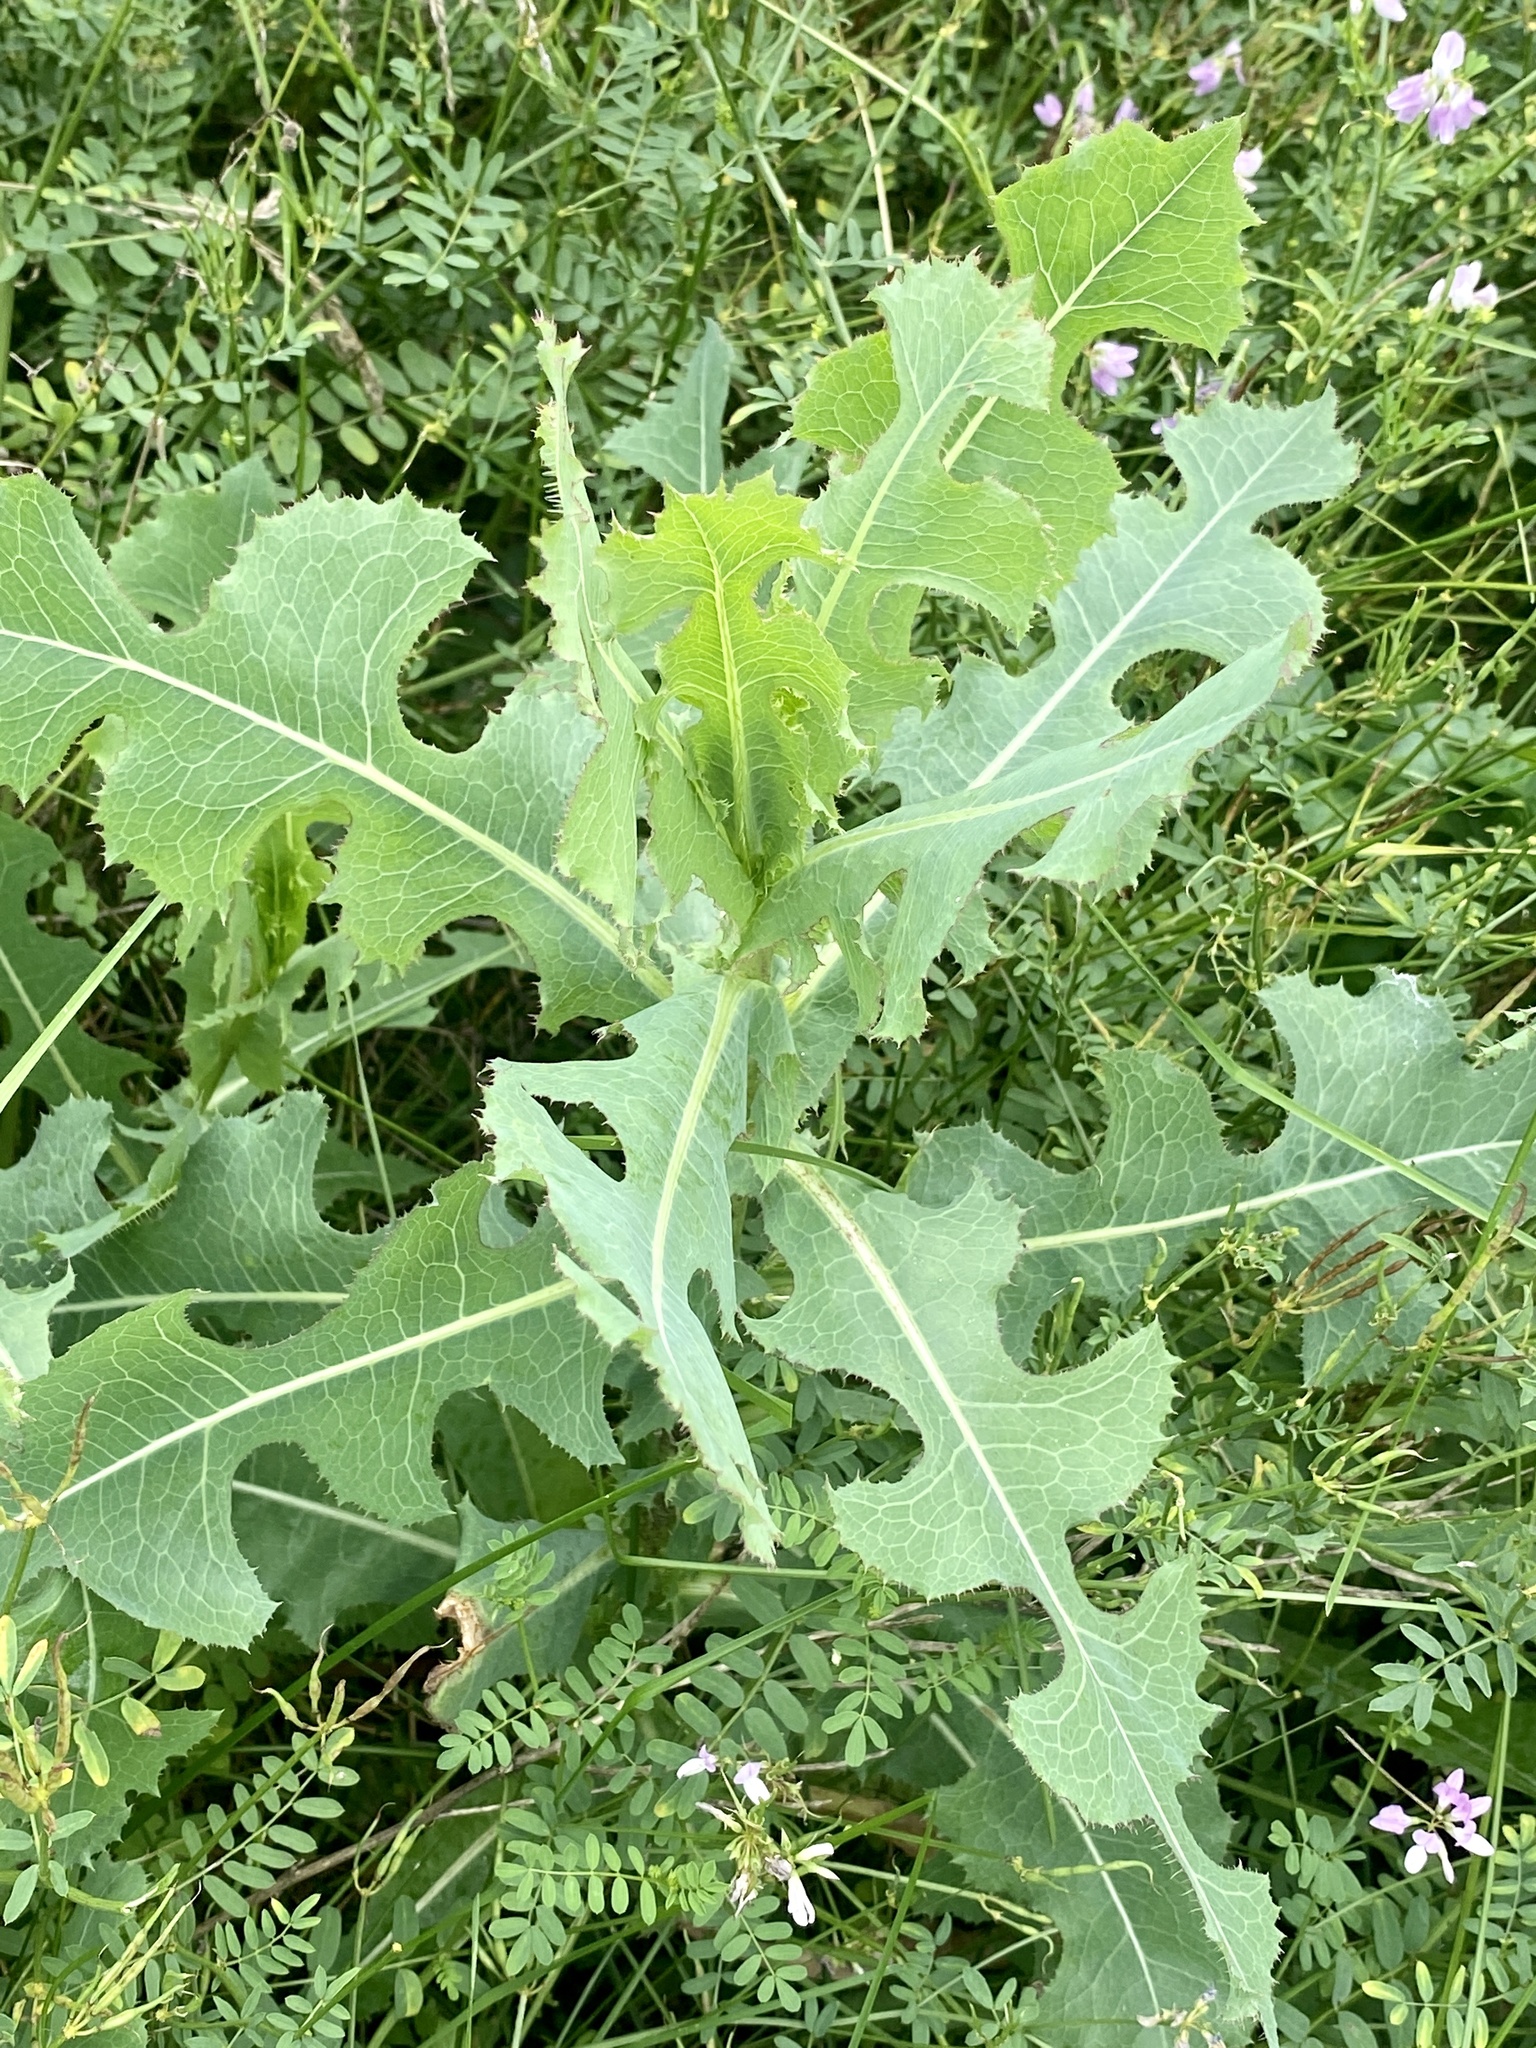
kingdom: Plantae
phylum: Tracheophyta
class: Magnoliopsida
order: Asterales
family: Asteraceae
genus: Lactuca
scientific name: Lactuca serriola
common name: Prickly lettuce
